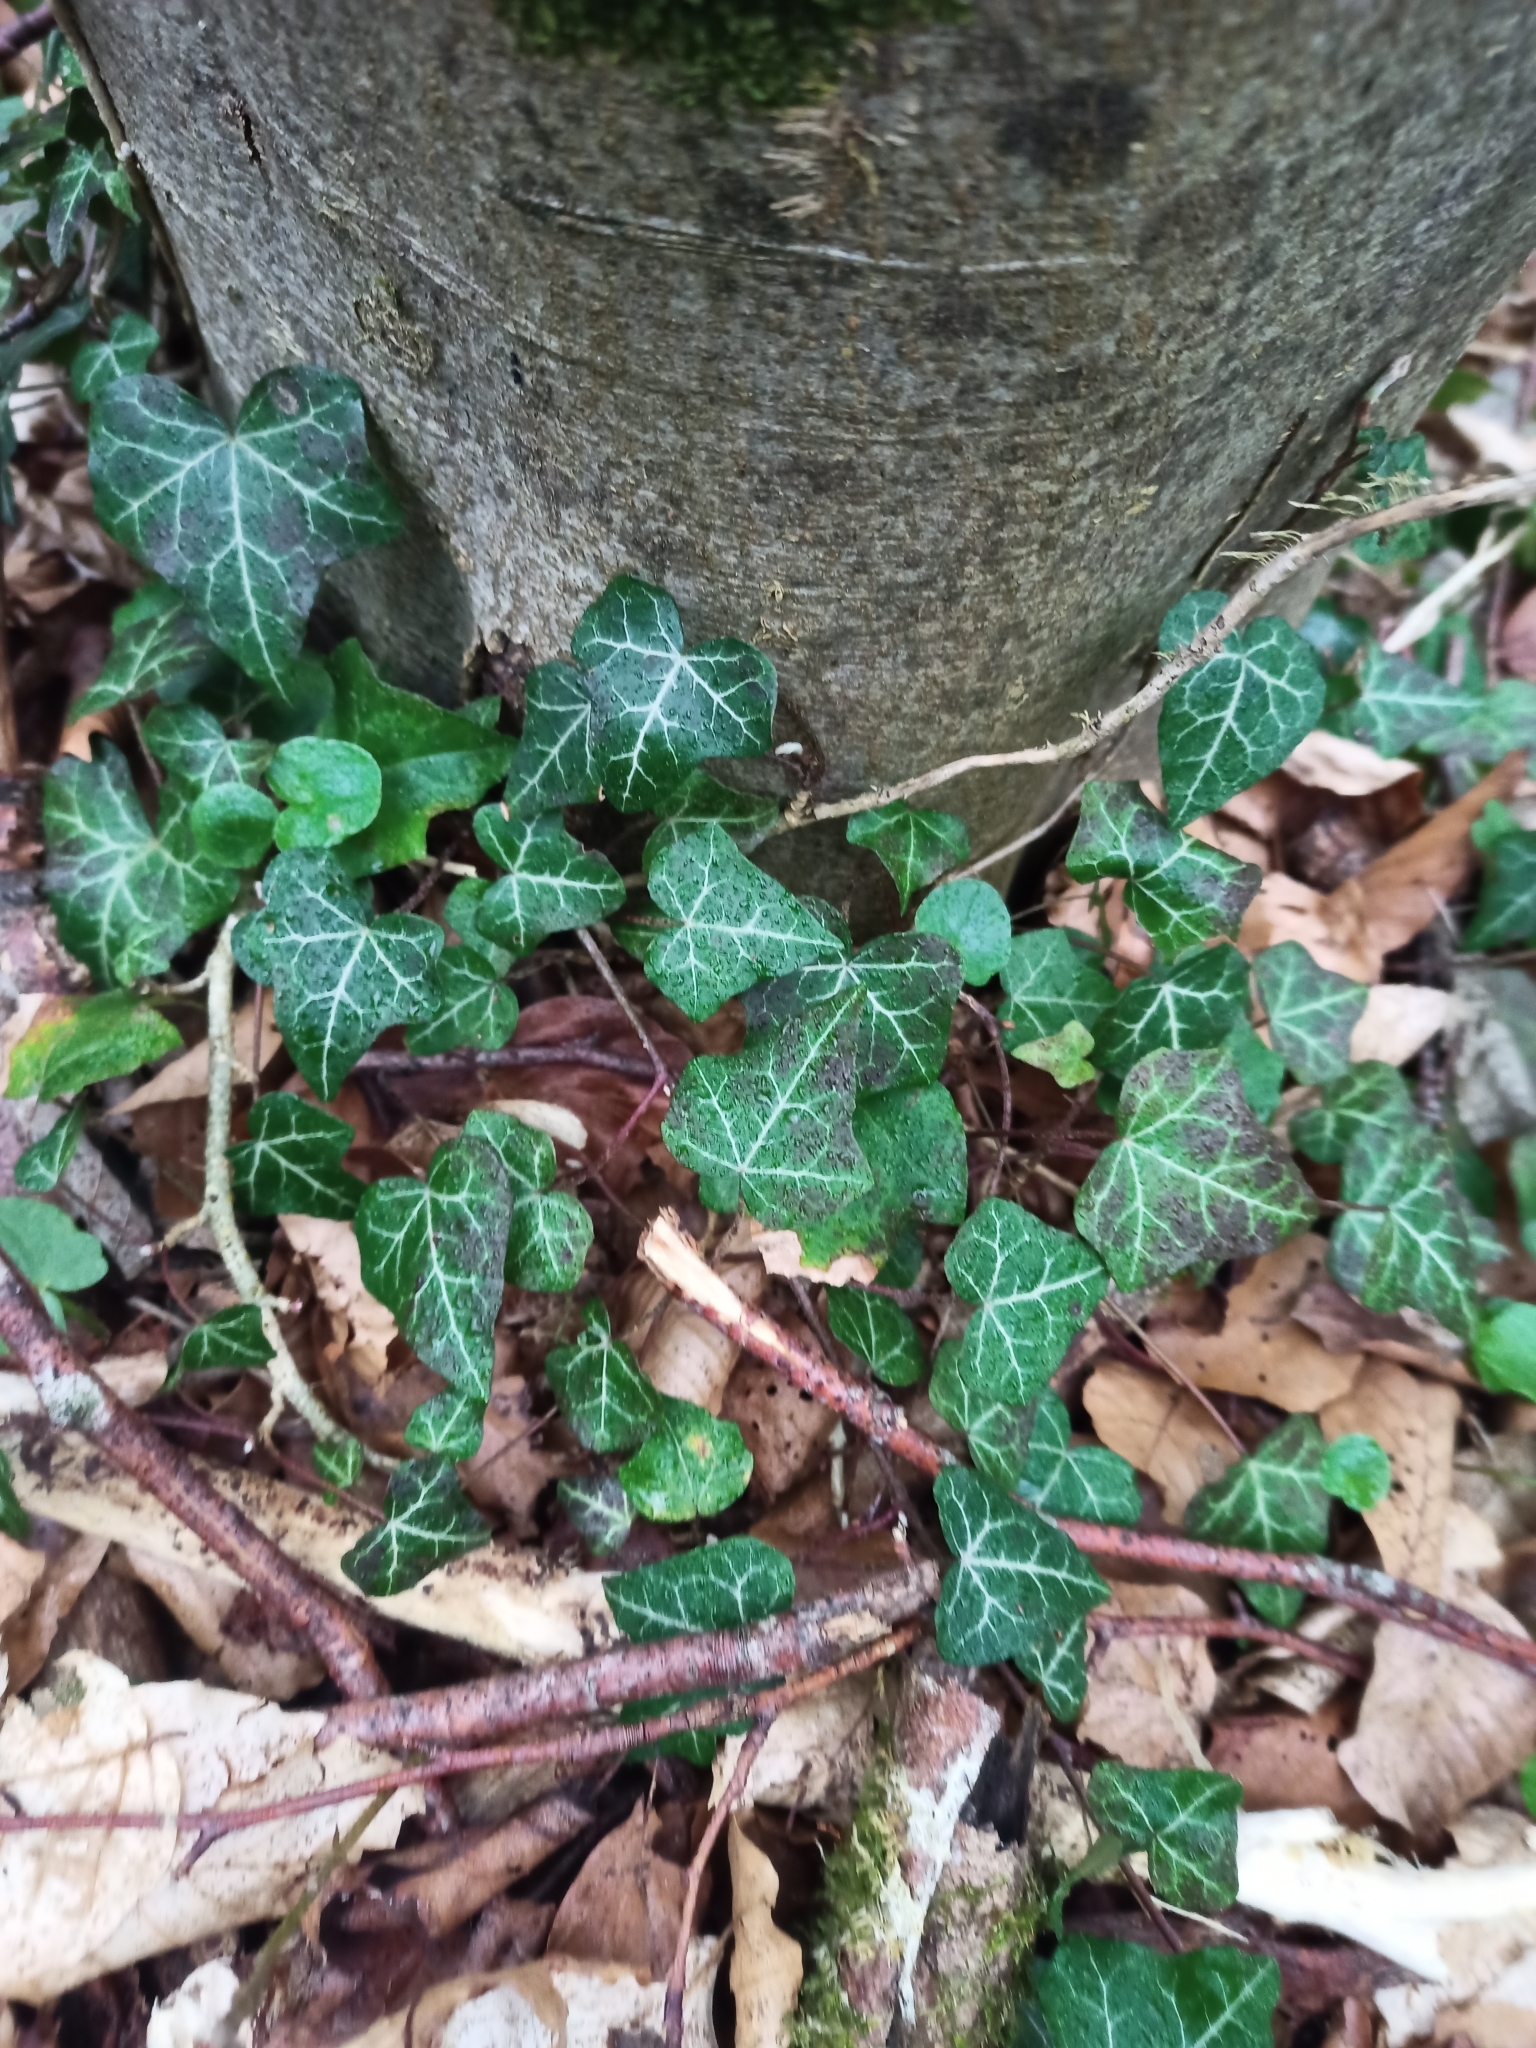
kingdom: Plantae
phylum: Tracheophyta
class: Magnoliopsida
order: Apiales
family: Araliaceae
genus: Hedera
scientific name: Hedera helix
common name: Ivy
